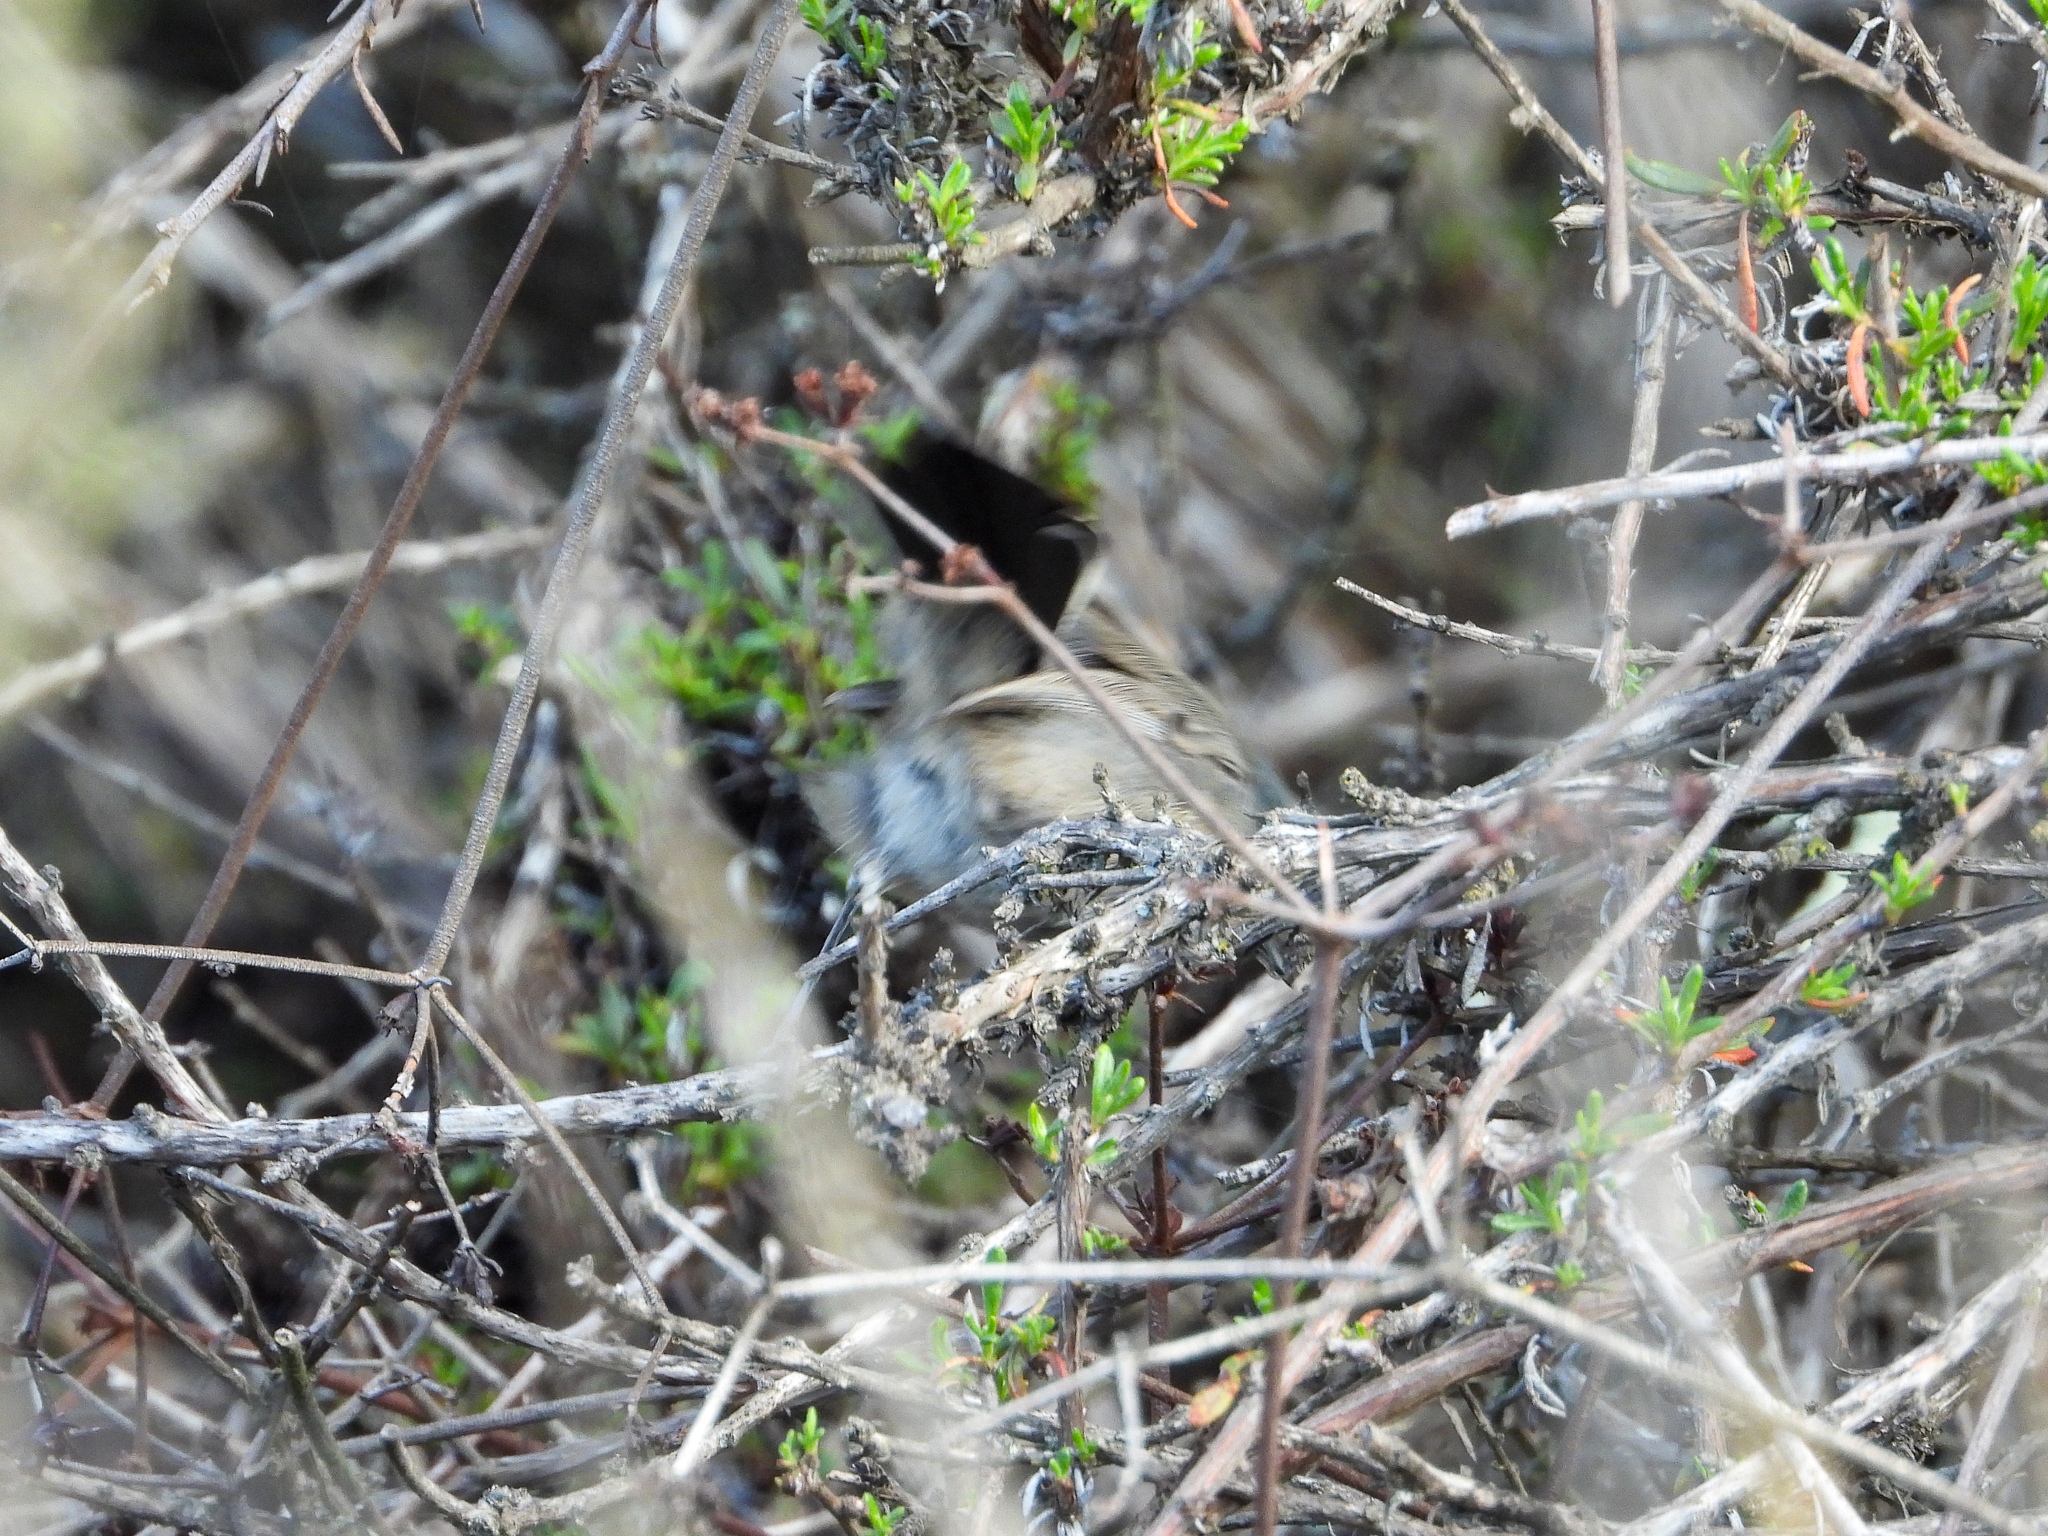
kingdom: Animalia
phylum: Chordata
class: Aves
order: Passeriformes
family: Polioptilidae
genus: Polioptila
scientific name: Polioptila californica
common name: California gnatcatcher
